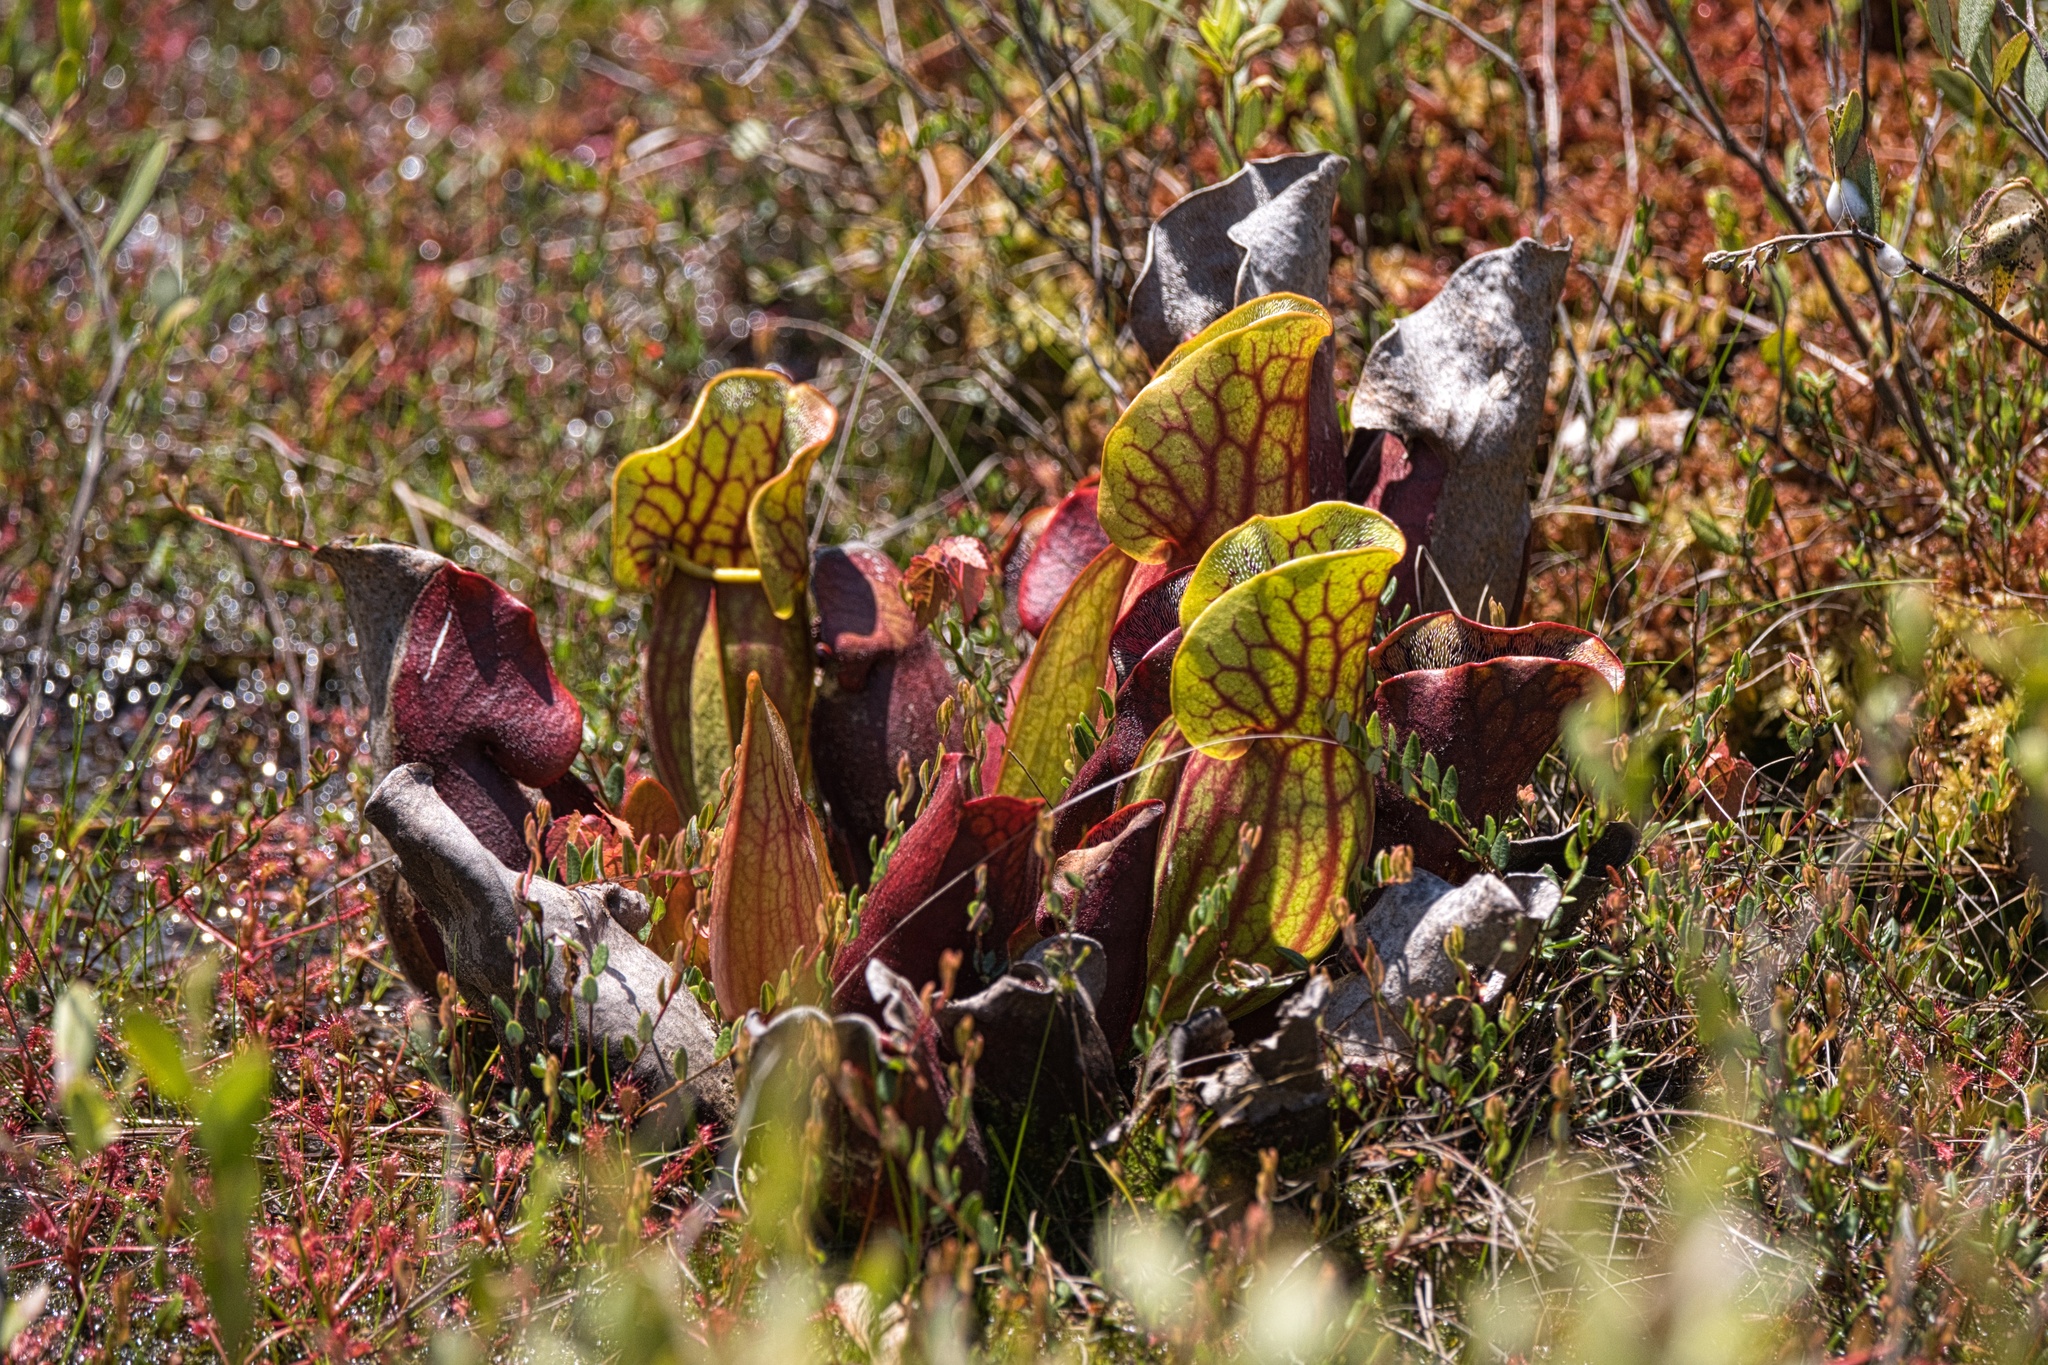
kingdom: Plantae
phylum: Tracheophyta
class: Magnoliopsida
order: Ericales
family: Sarraceniaceae
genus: Sarracenia
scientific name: Sarracenia purpurea
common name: Pitcherplant
